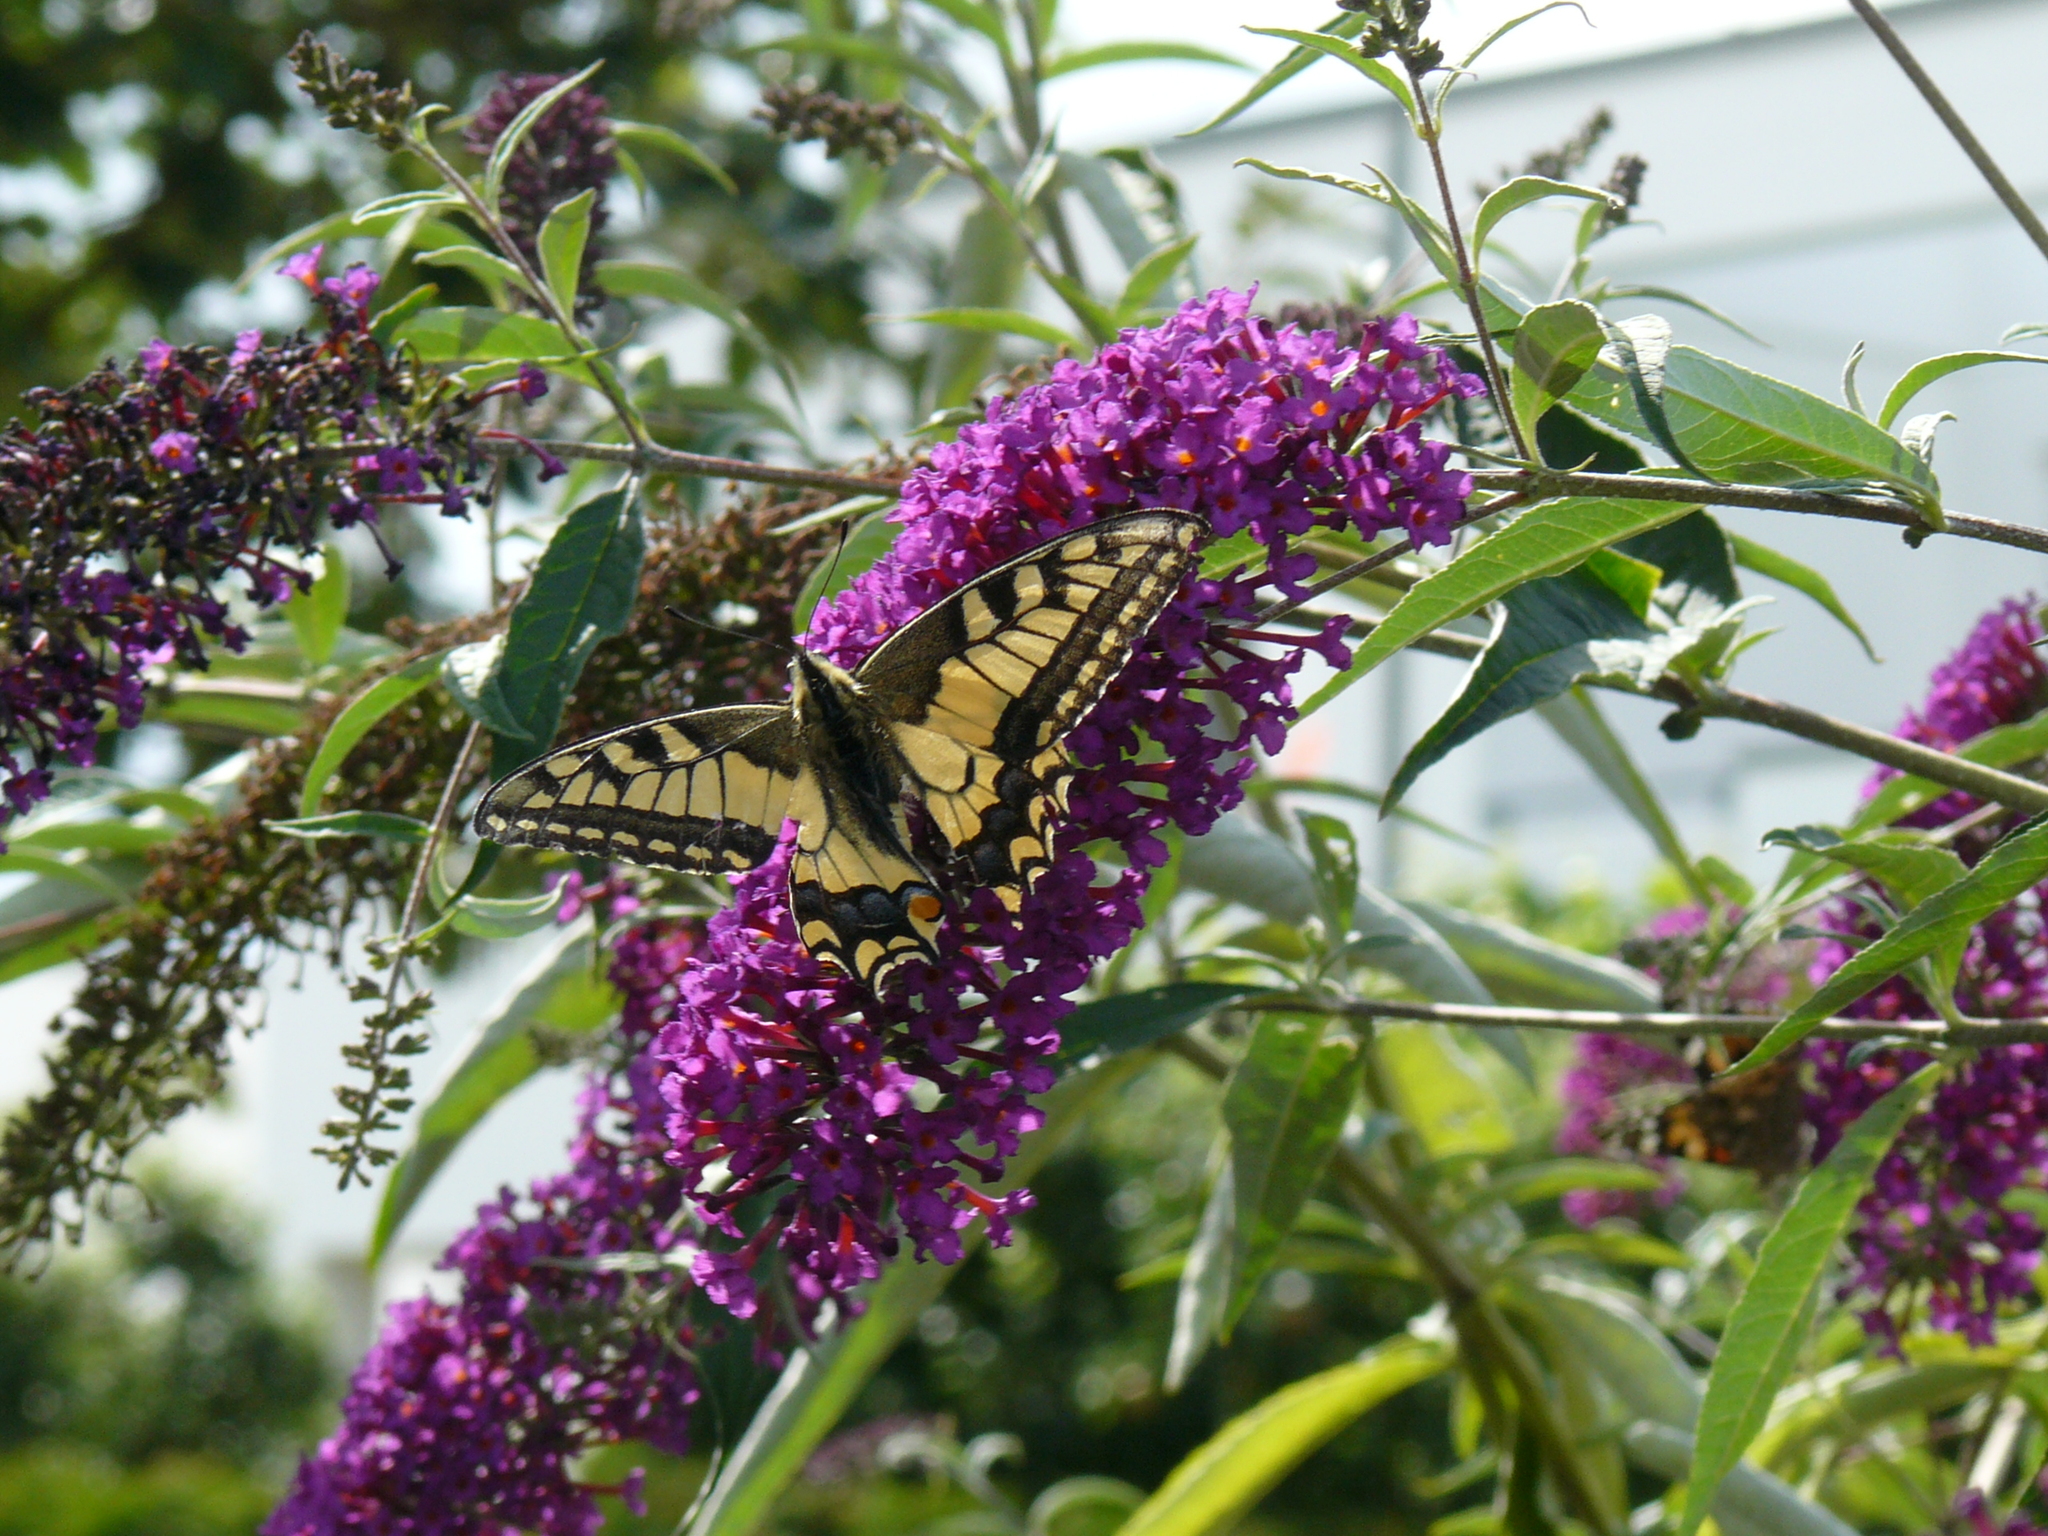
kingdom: Animalia
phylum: Arthropoda
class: Insecta
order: Lepidoptera
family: Papilionidae
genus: Papilio
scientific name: Papilio machaon
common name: Swallowtail
